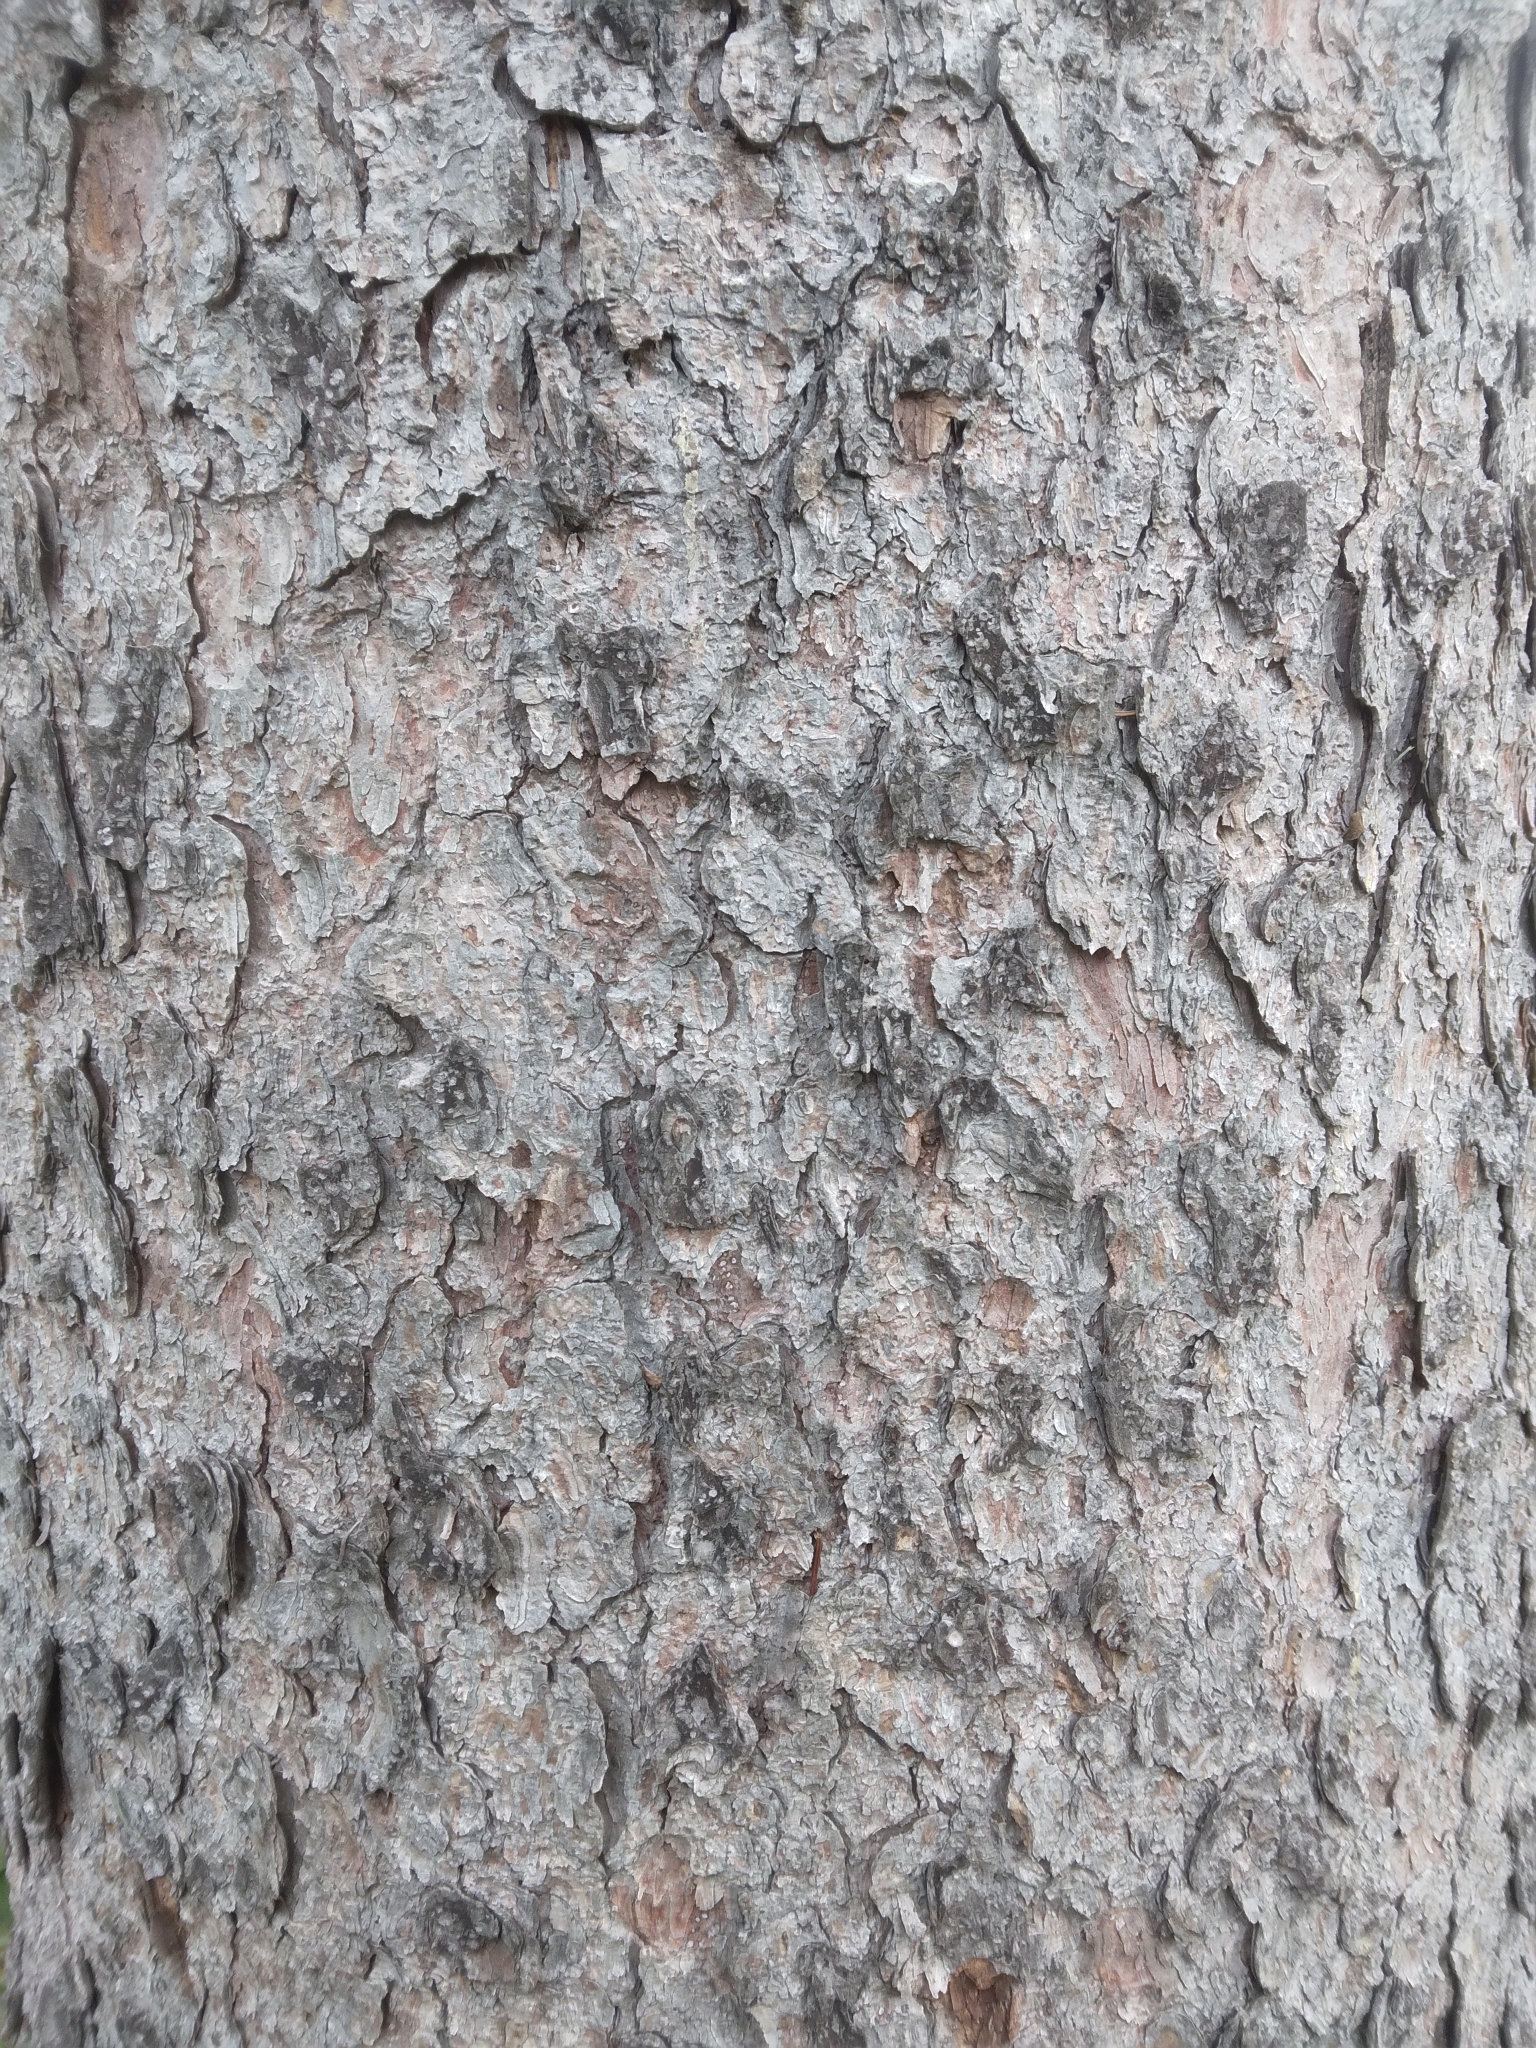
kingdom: Plantae
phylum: Tracheophyta
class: Pinopsida
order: Pinales
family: Pinaceae
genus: Picea
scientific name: Picea abies
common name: Norway spruce
